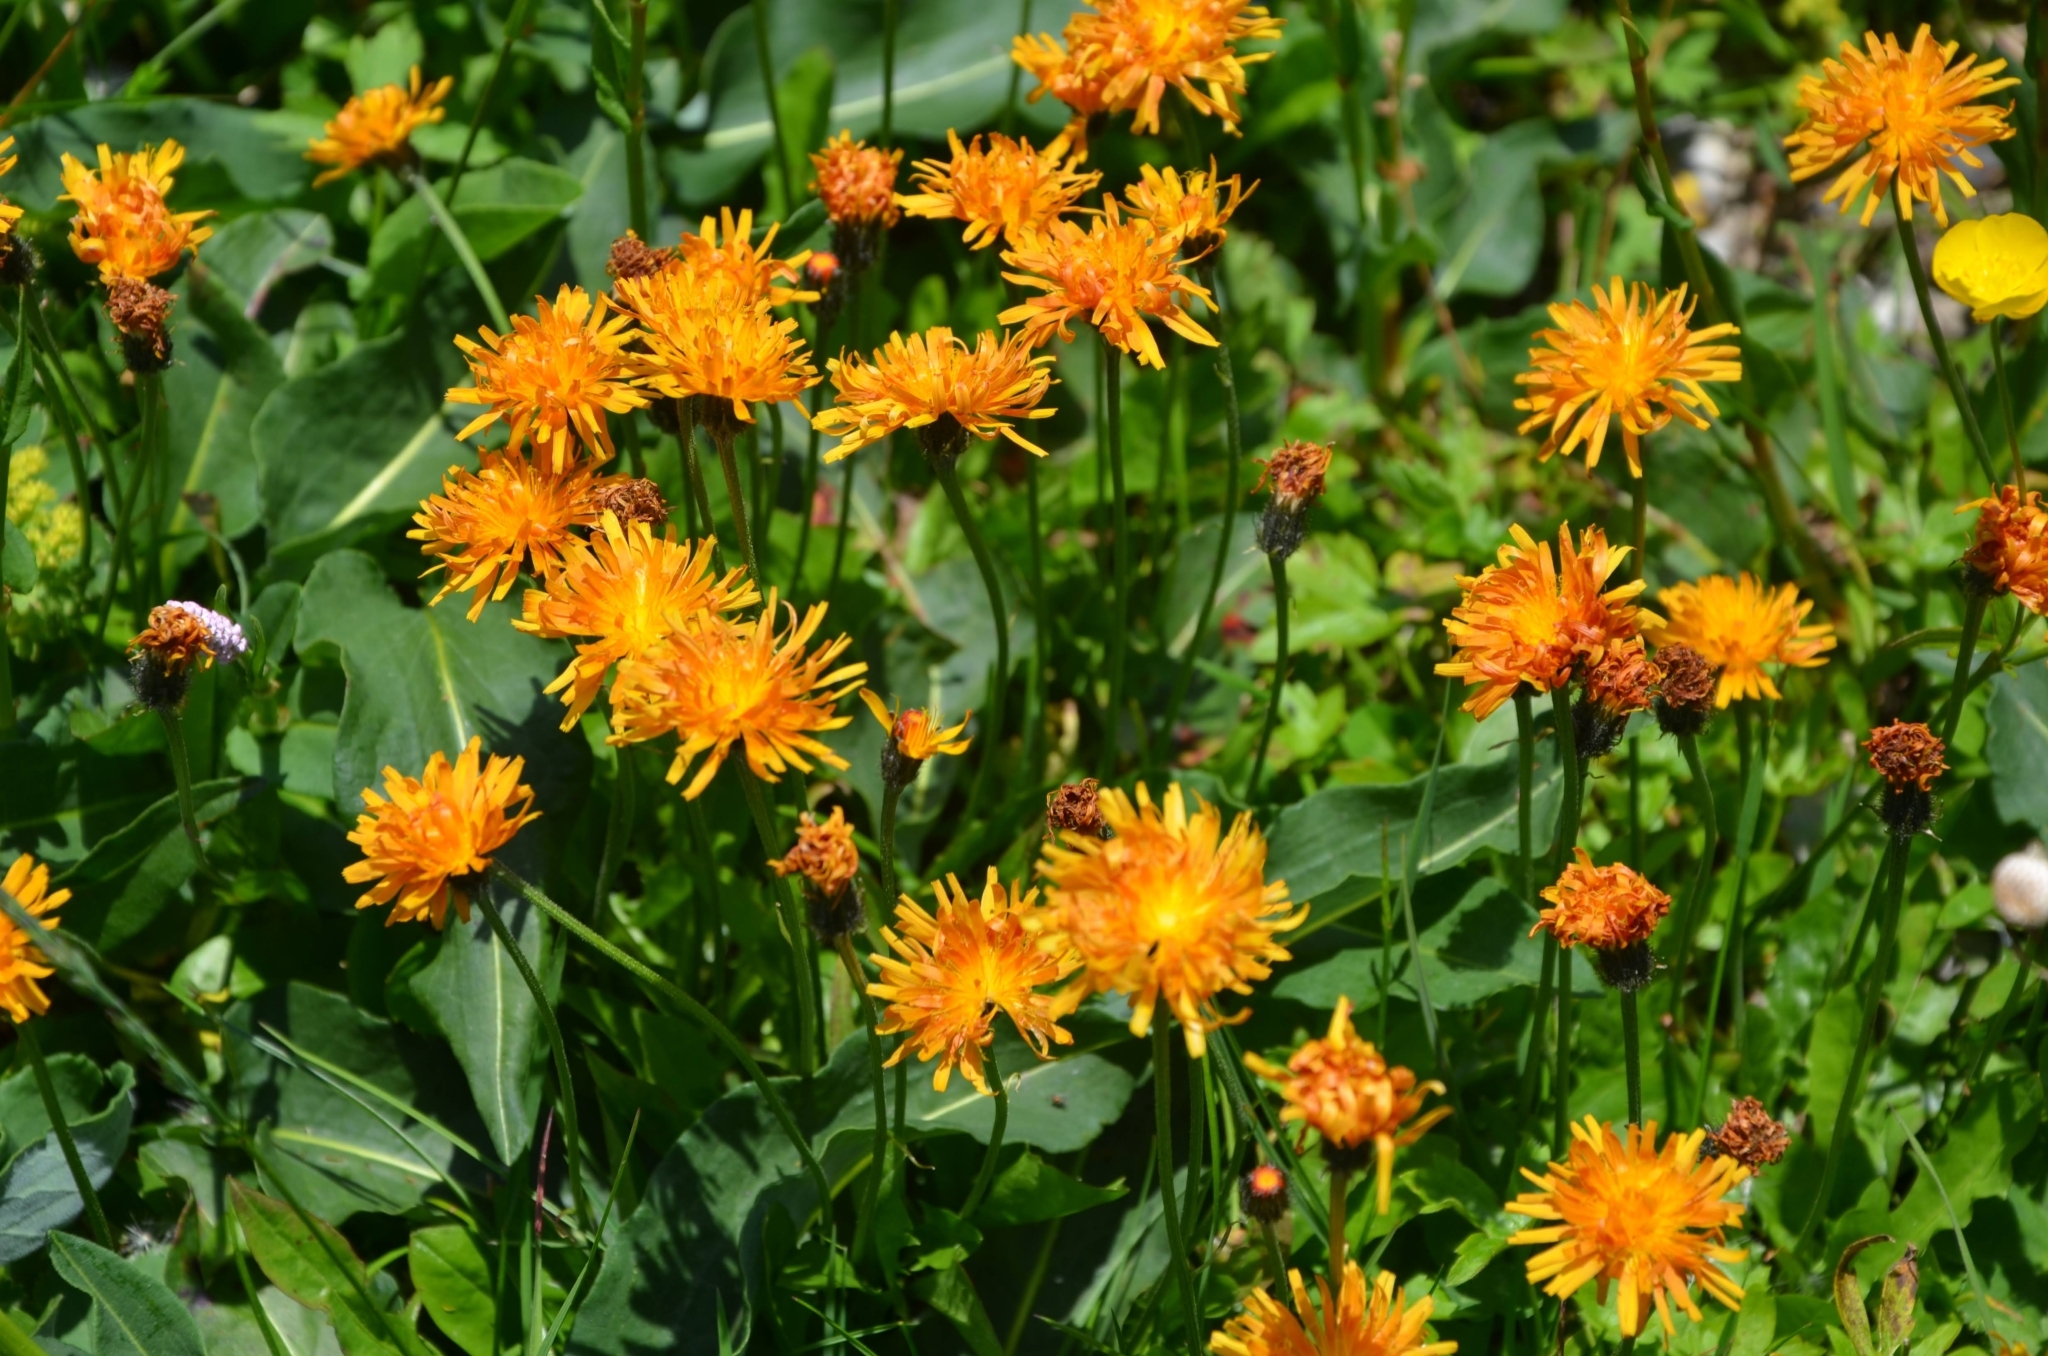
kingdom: Plantae
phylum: Tracheophyta
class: Magnoliopsida
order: Asterales
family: Asteraceae
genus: Crepis
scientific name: Crepis aurea
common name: Golden hawk's-beard
